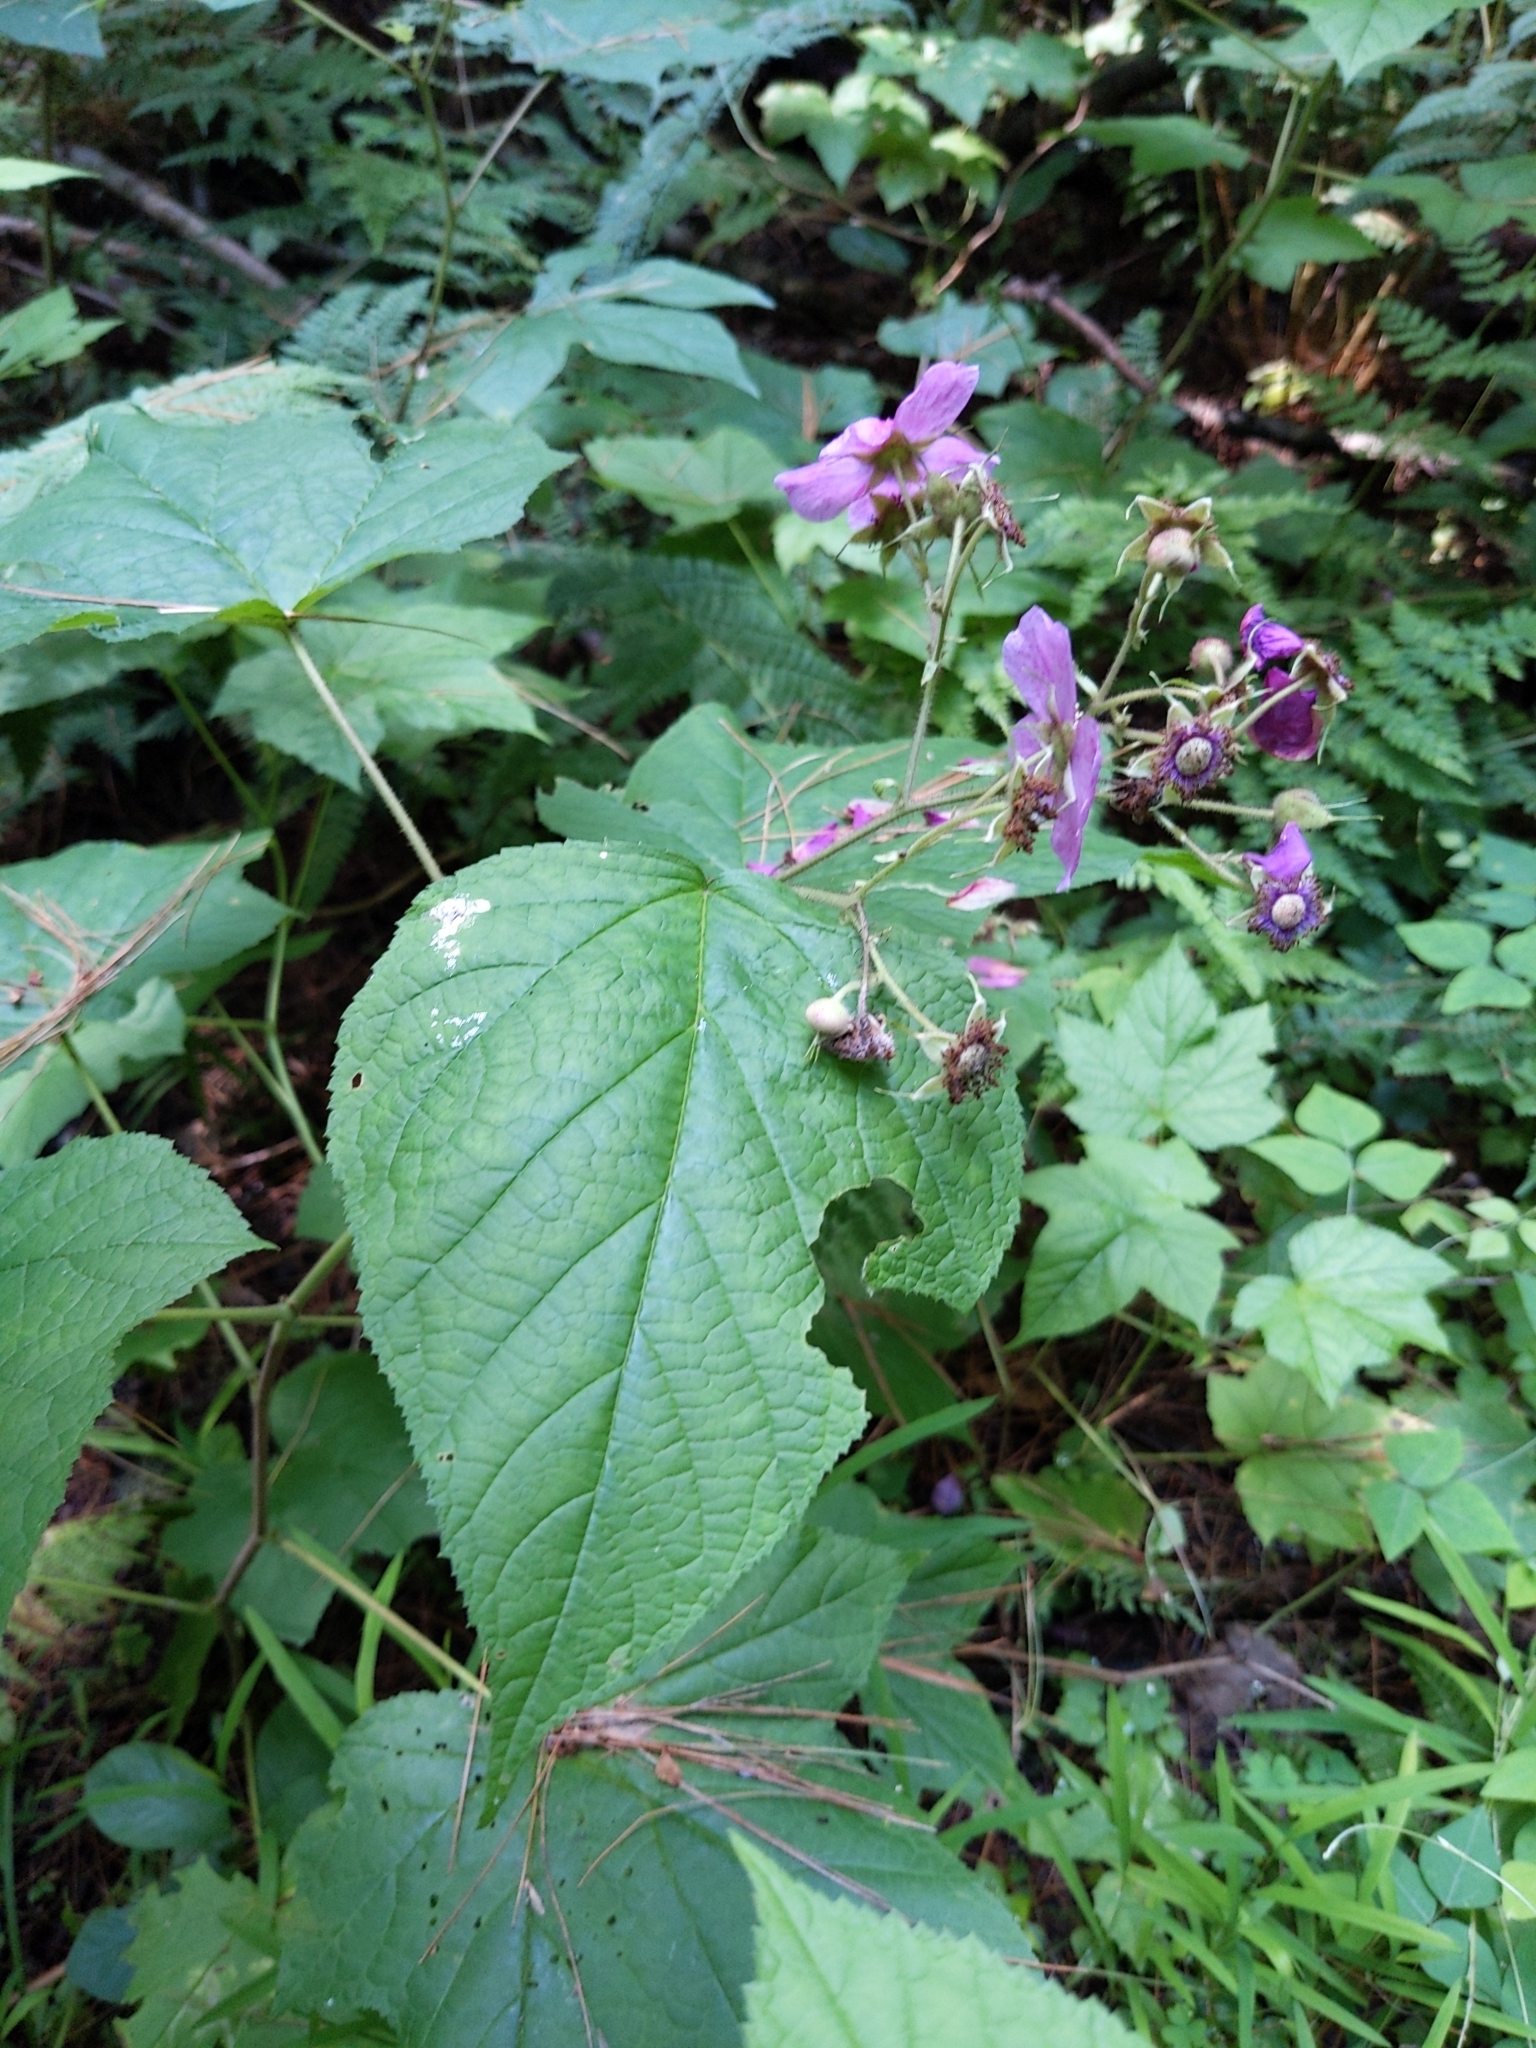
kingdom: Plantae
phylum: Tracheophyta
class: Magnoliopsida
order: Rosales
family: Rosaceae
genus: Rubus
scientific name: Rubus odoratus
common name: Purple-flowered raspberry
